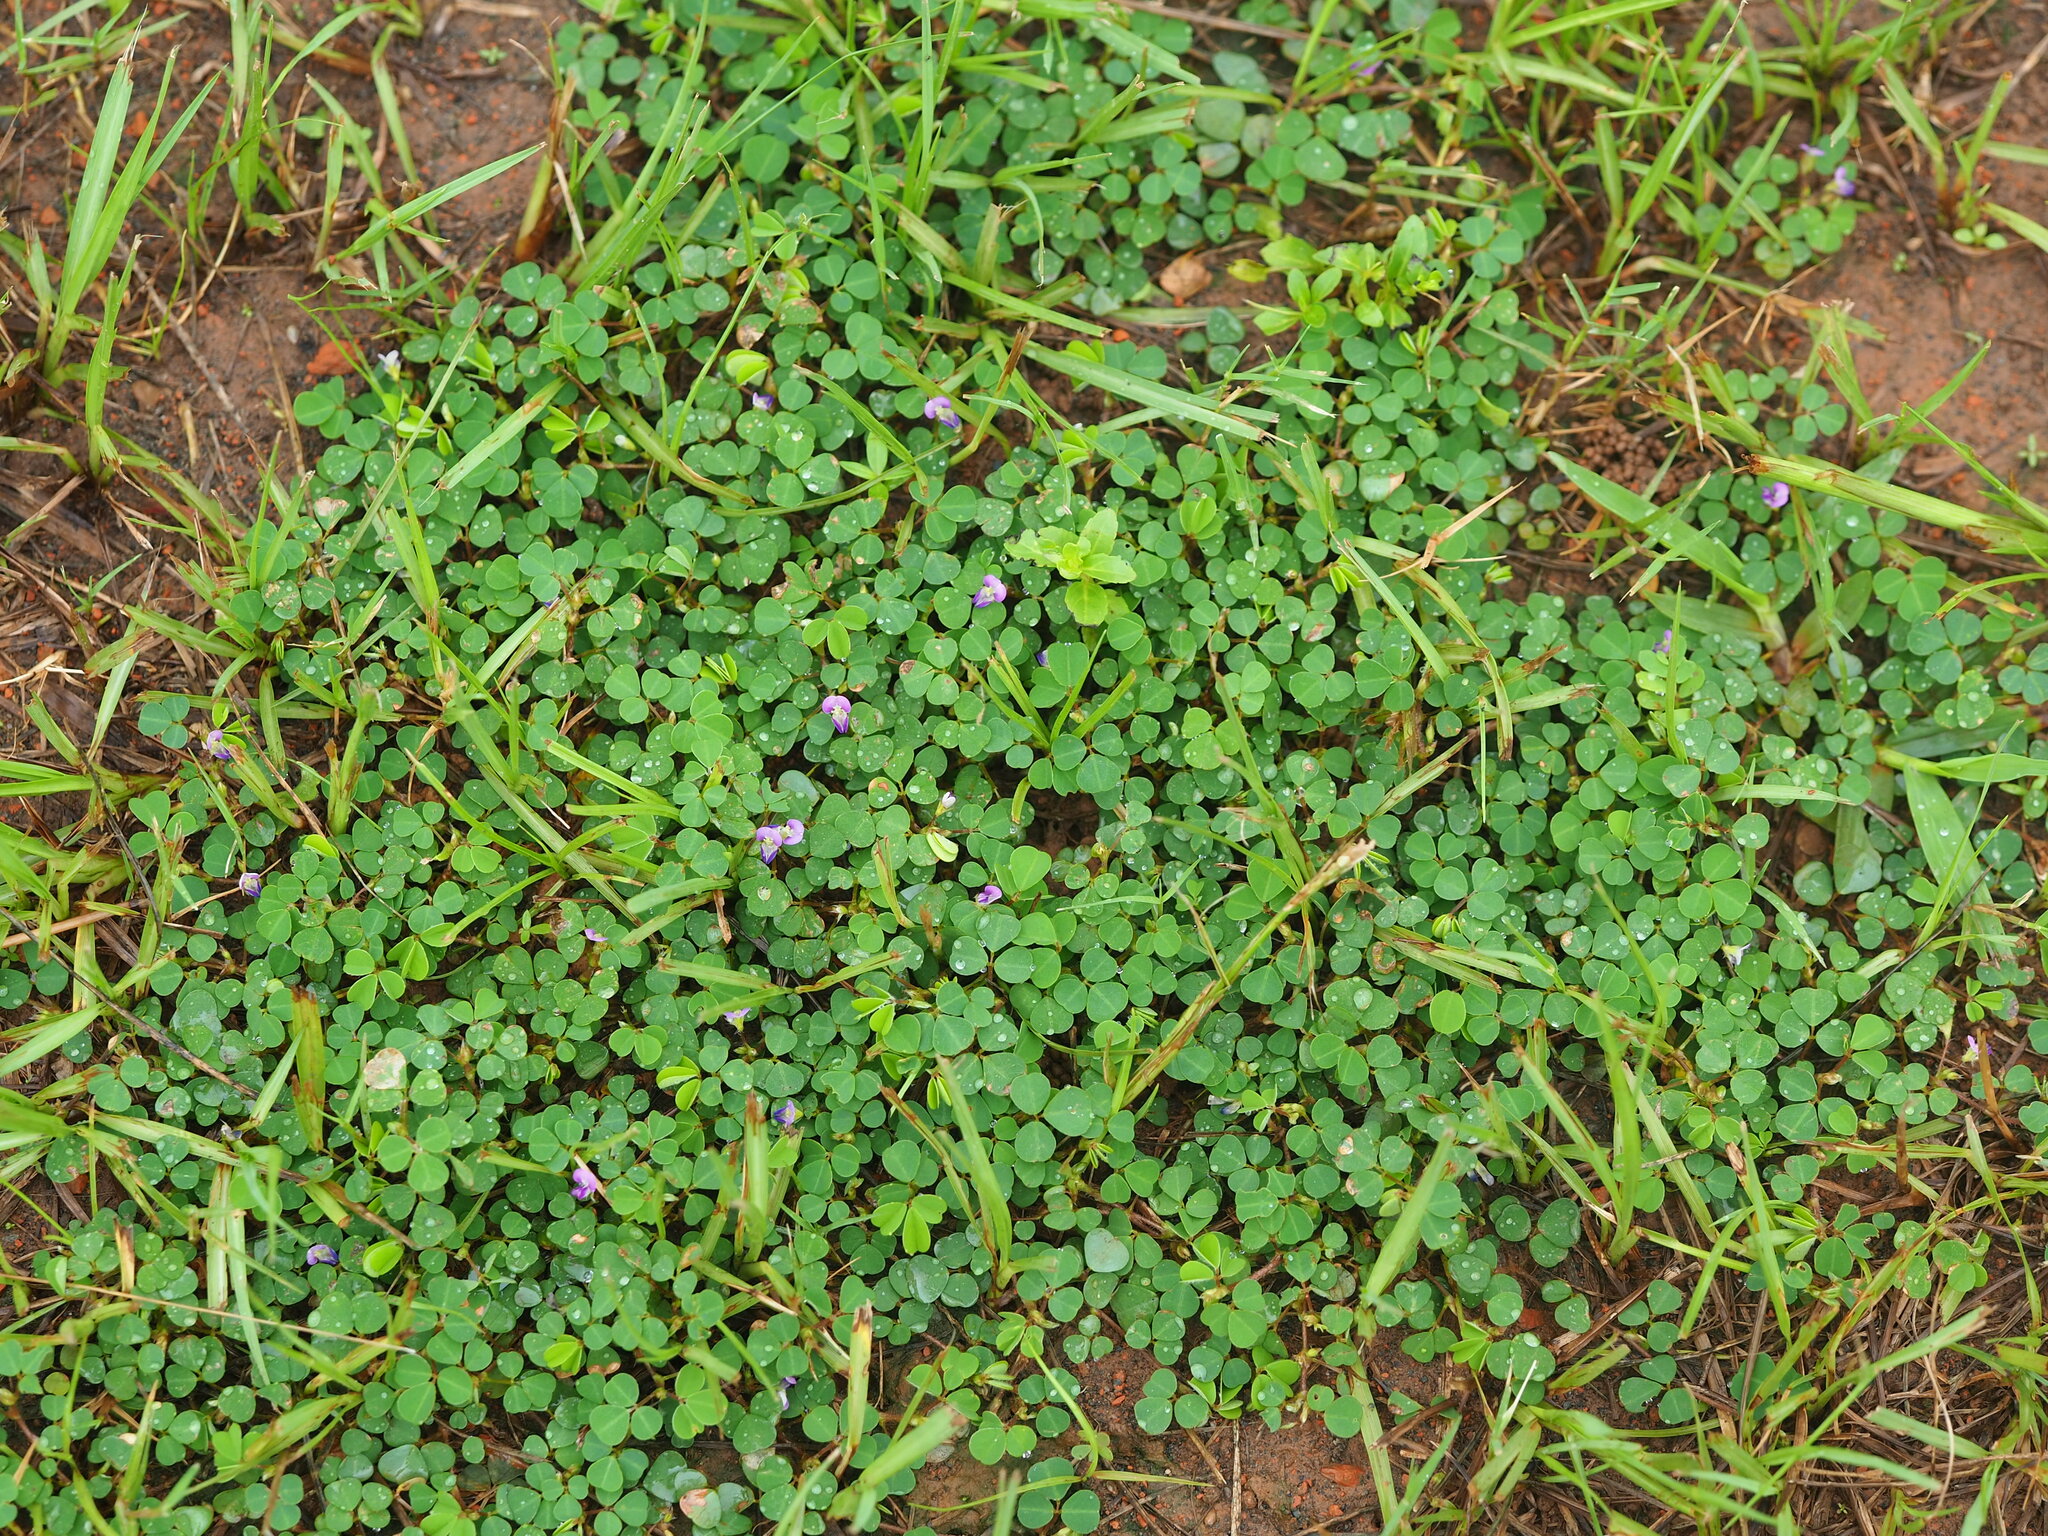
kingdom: Plantae
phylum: Tracheophyta
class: Magnoliopsida
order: Fabales
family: Fabaceae
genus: Grona
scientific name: Grona triflora
